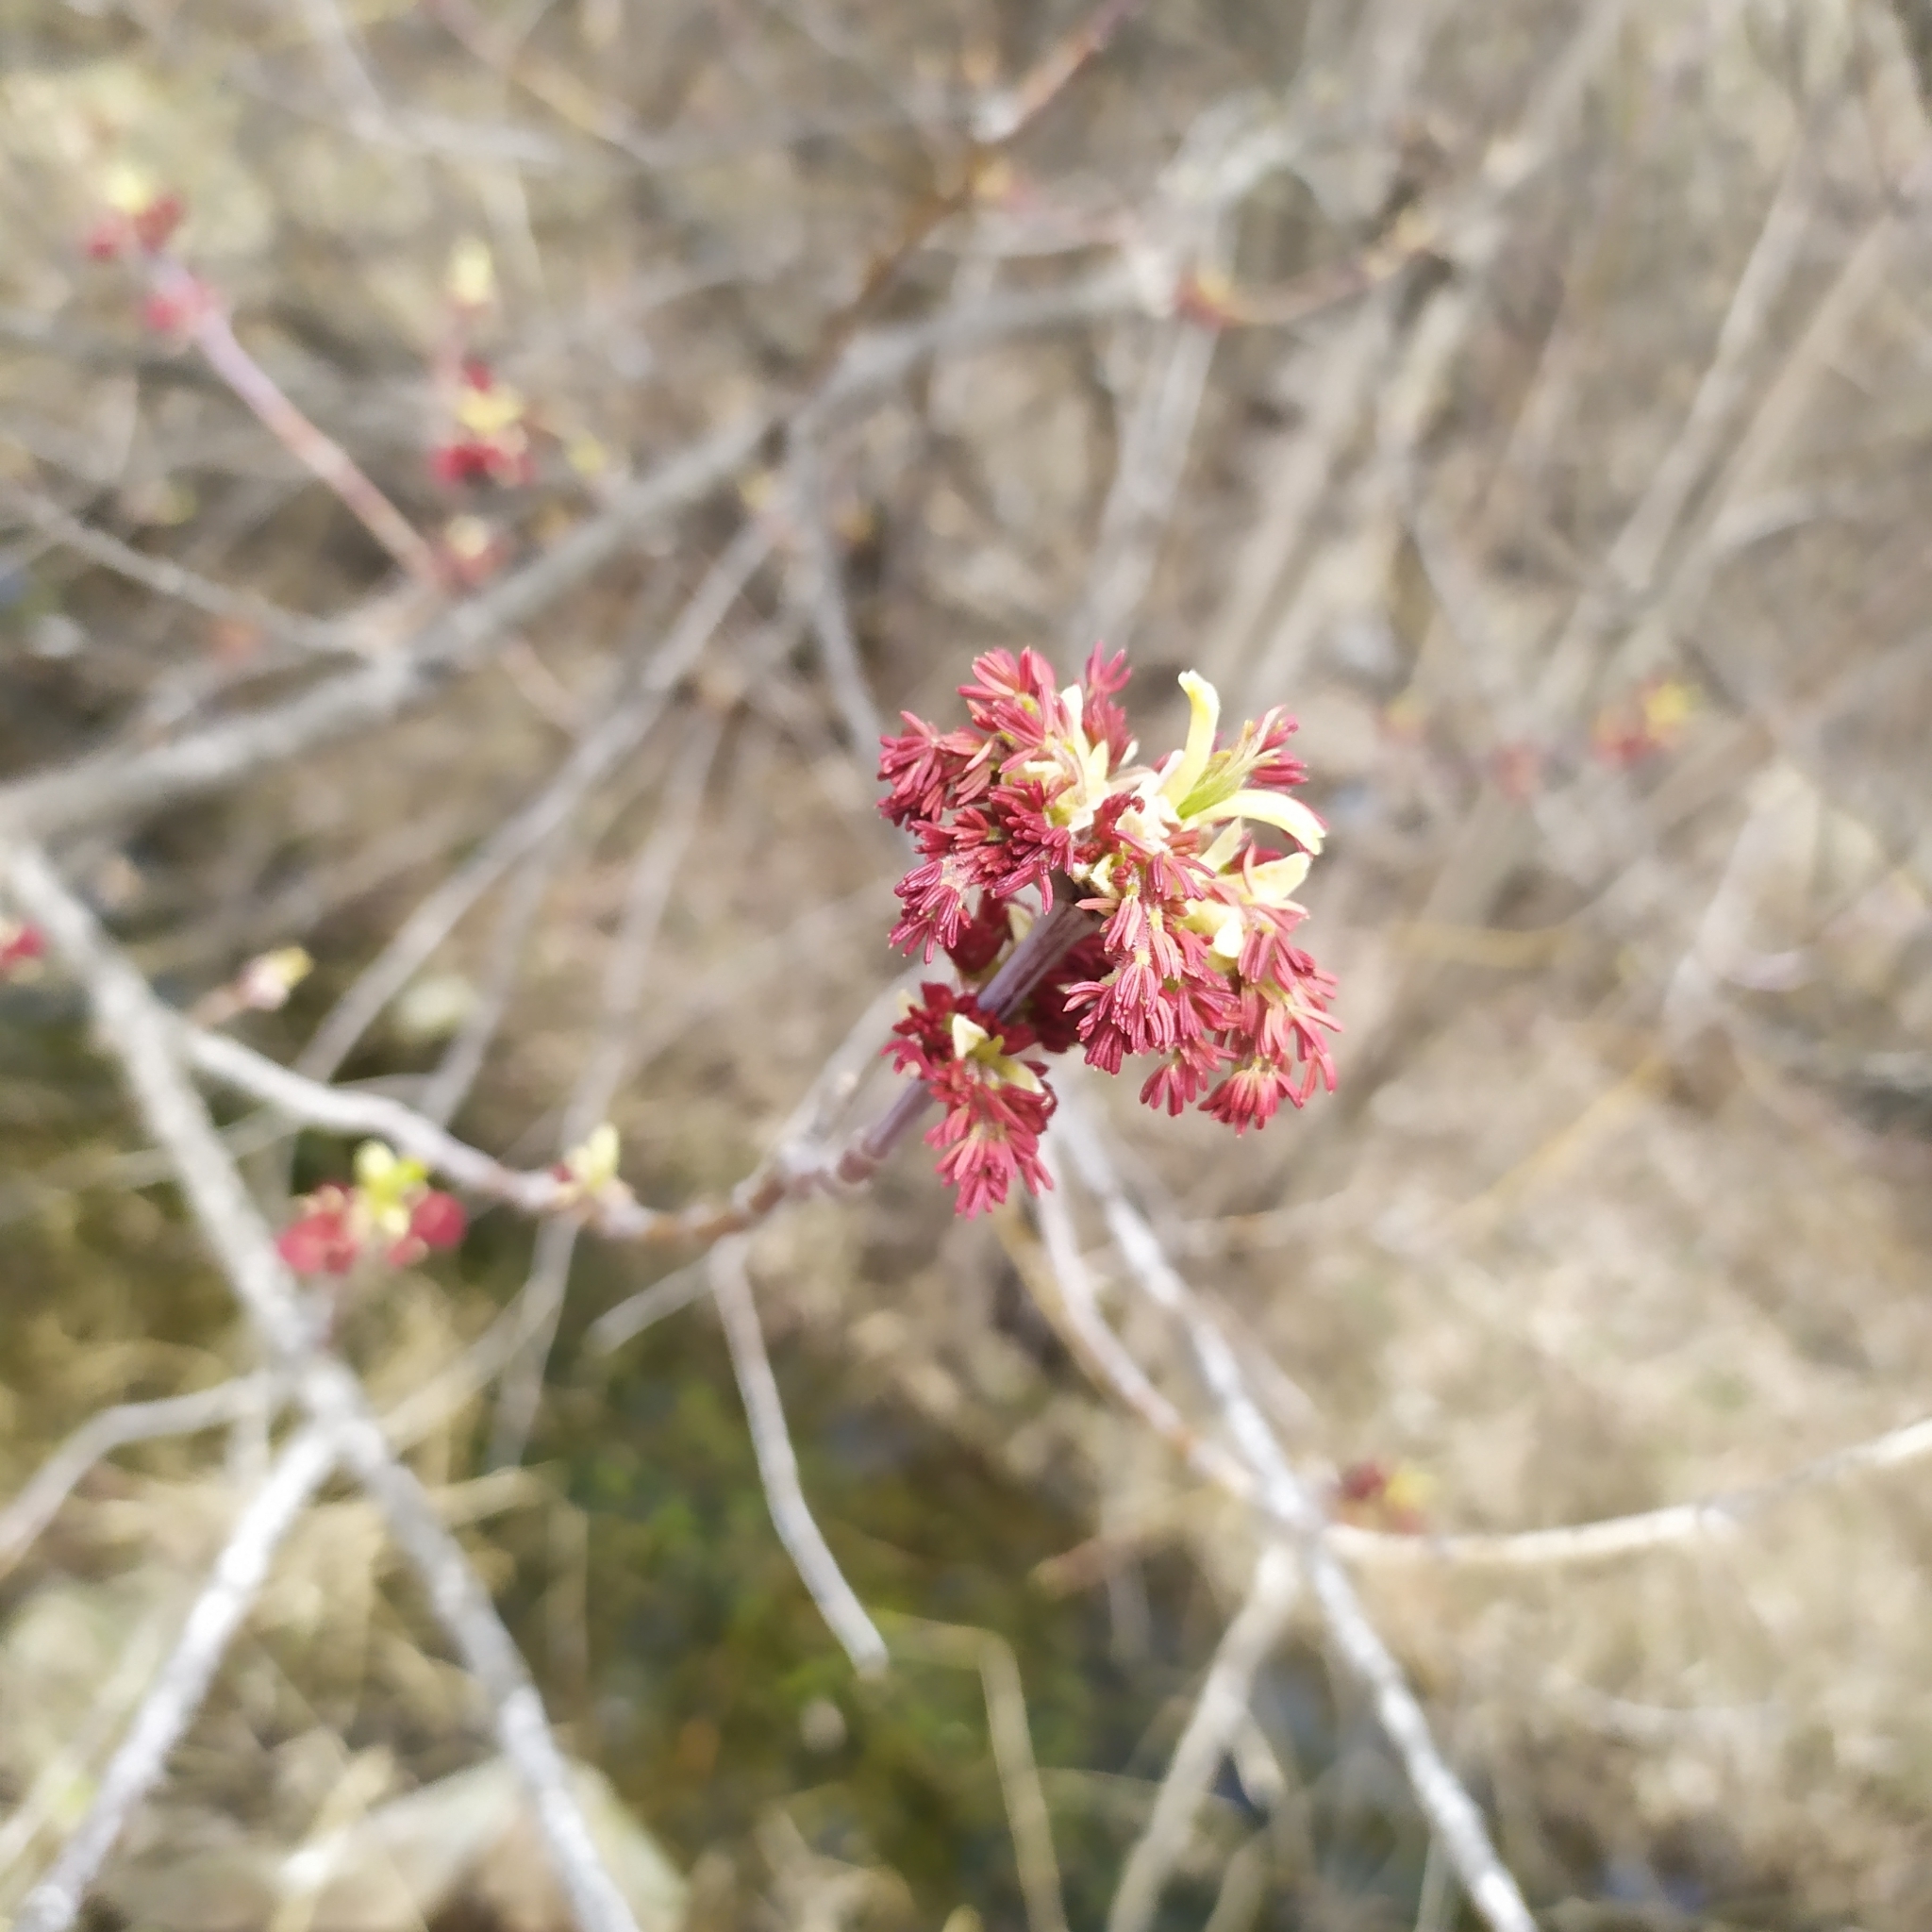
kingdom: Plantae
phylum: Tracheophyta
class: Magnoliopsida
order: Sapindales
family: Sapindaceae
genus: Acer
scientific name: Acer negundo
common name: Ashleaf maple
